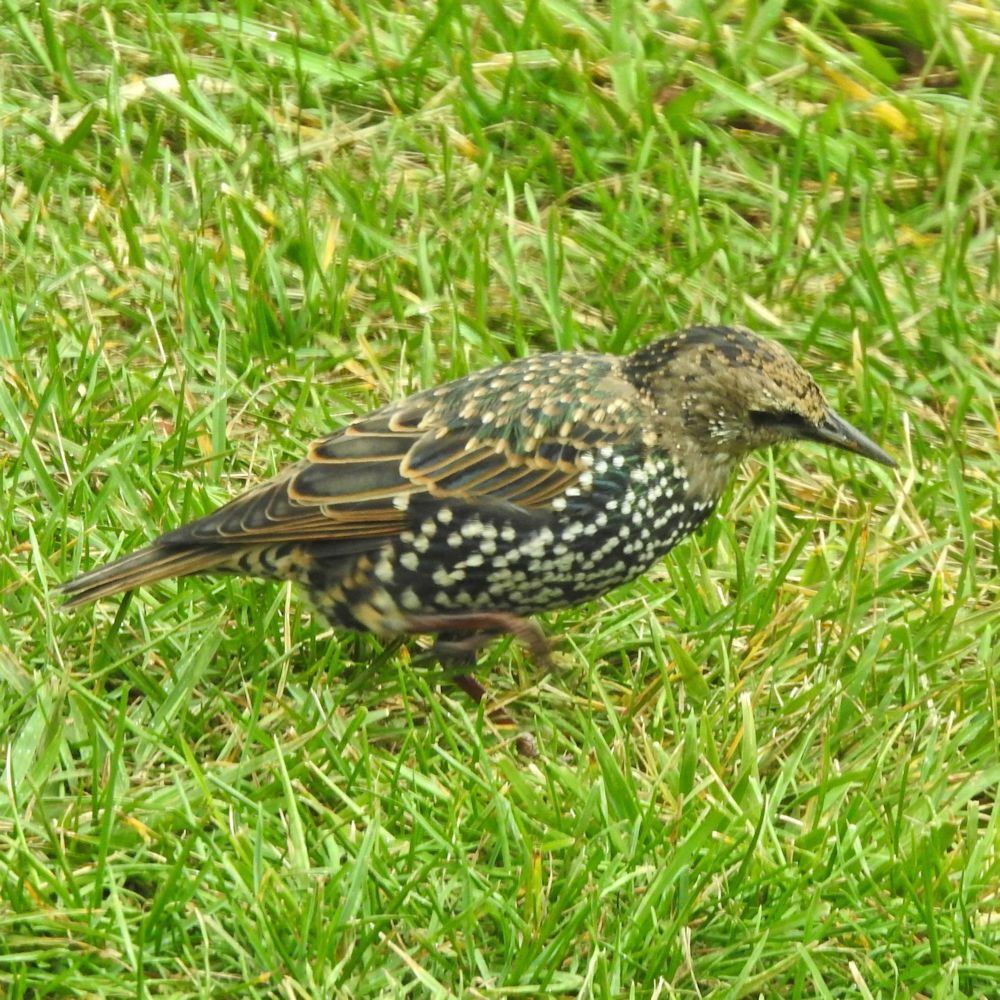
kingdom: Animalia
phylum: Chordata
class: Aves
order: Passeriformes
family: Sturnidae
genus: Sturnus
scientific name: Sturnus vulgaris
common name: Common starling
